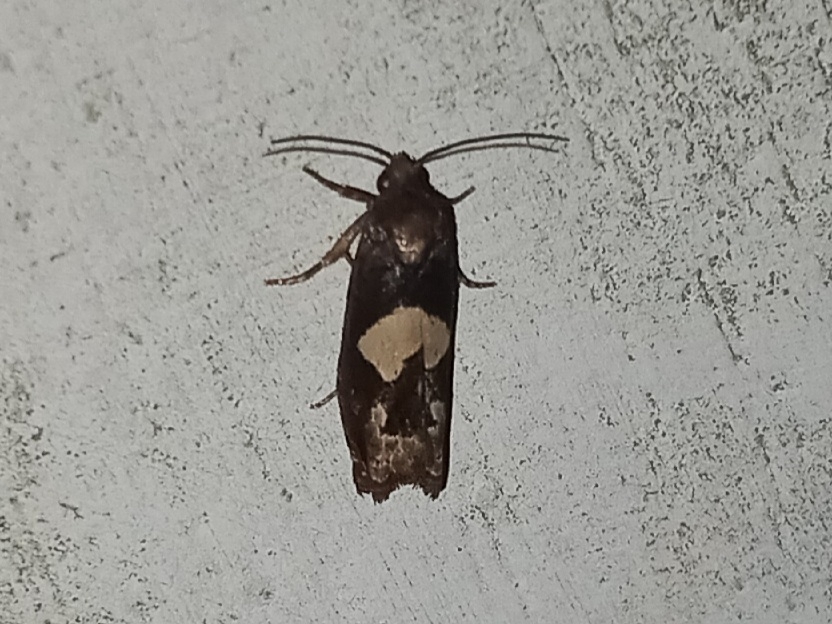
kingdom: Animalia
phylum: Arthropoda
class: Insecta
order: Lepidoptera
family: Tortricidae
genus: Epiblema
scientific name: Epiblema otiosana
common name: Bidens borer moth
